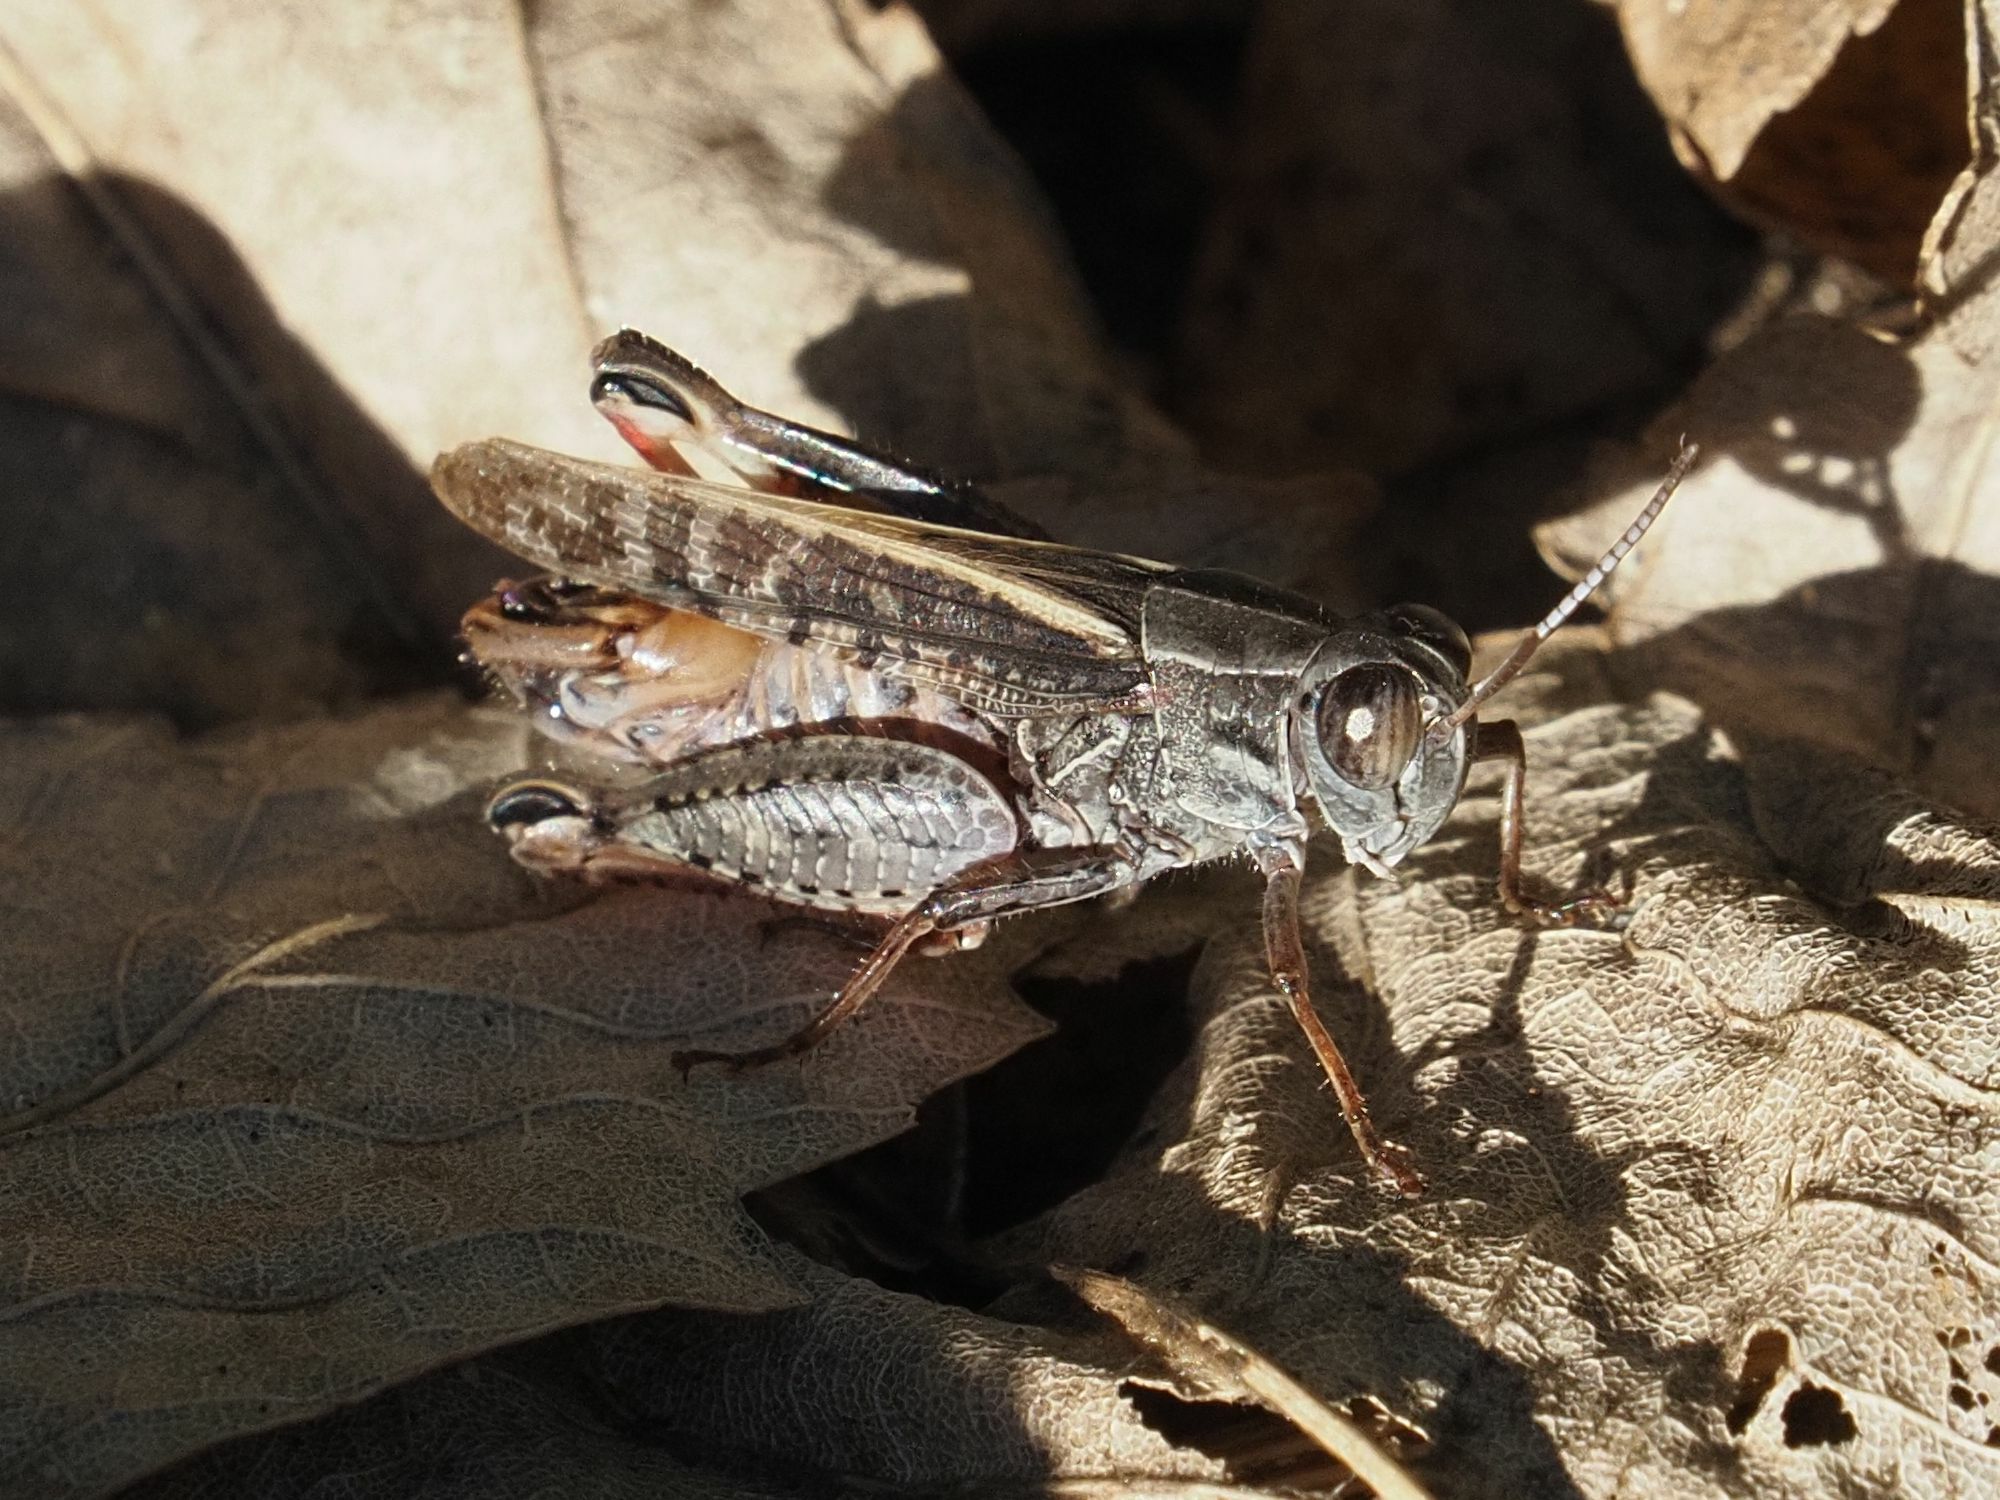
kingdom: Animalia
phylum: Arthropoda
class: Insecta
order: Orthoptera
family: Acrididae
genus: Calliptamus
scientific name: Calliptamus italicus
